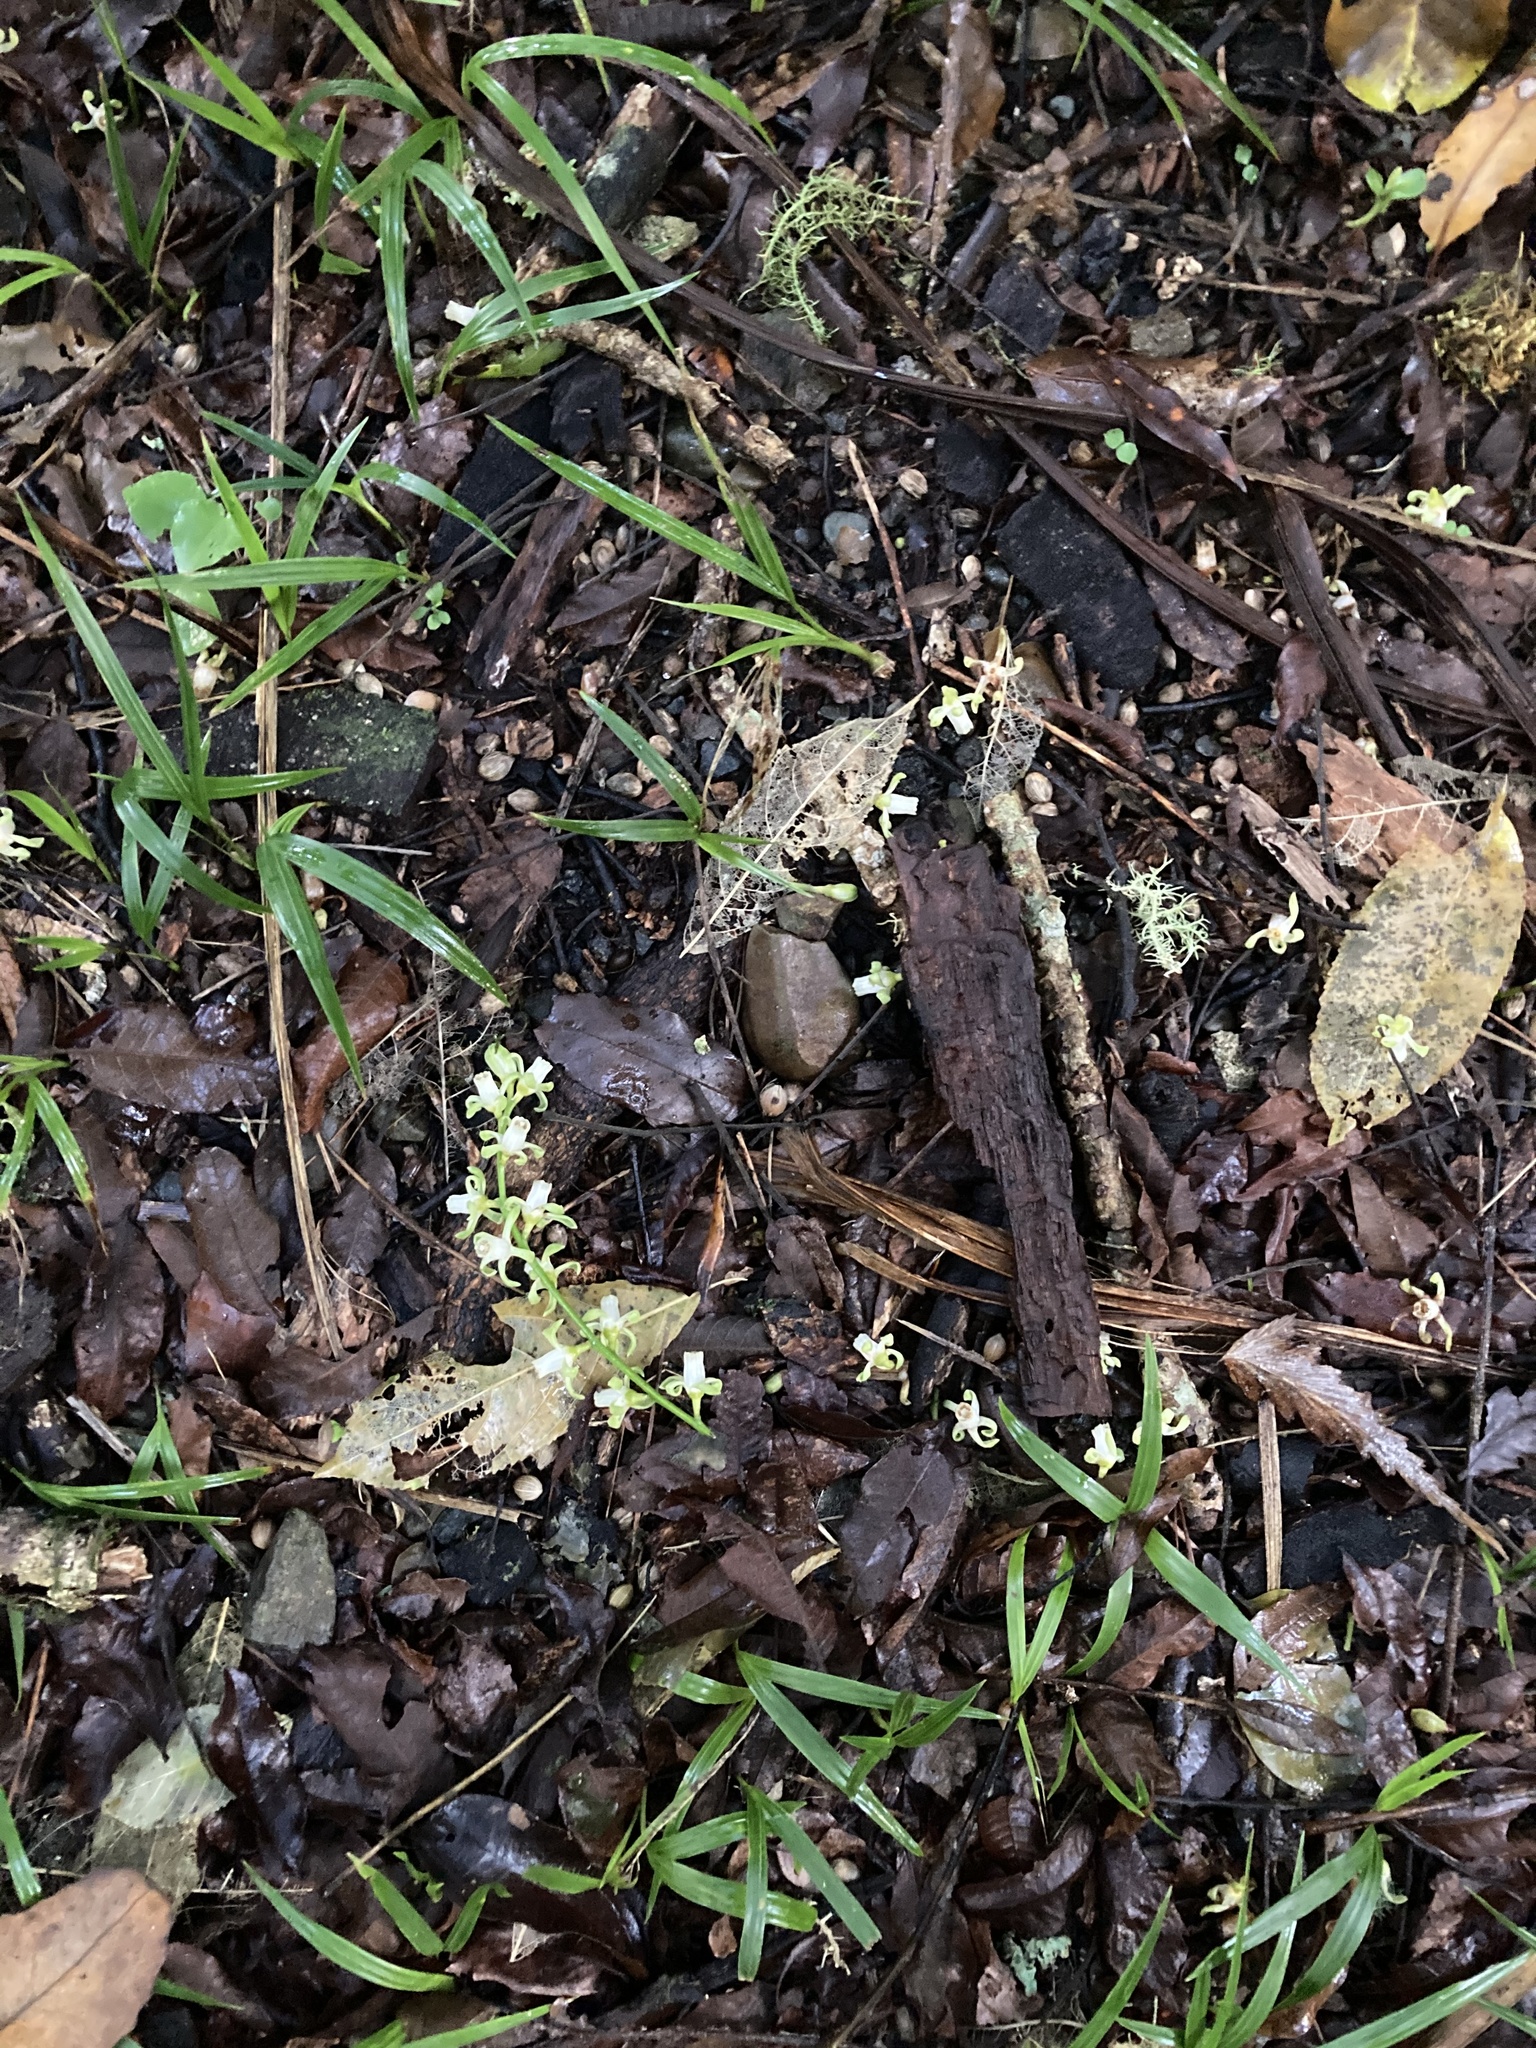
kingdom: Plantae
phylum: Tracheophyta
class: Magnoliopsida
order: Sapindales
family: Meliaceae
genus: Didymocheton
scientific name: Didymocheton spectabilis
